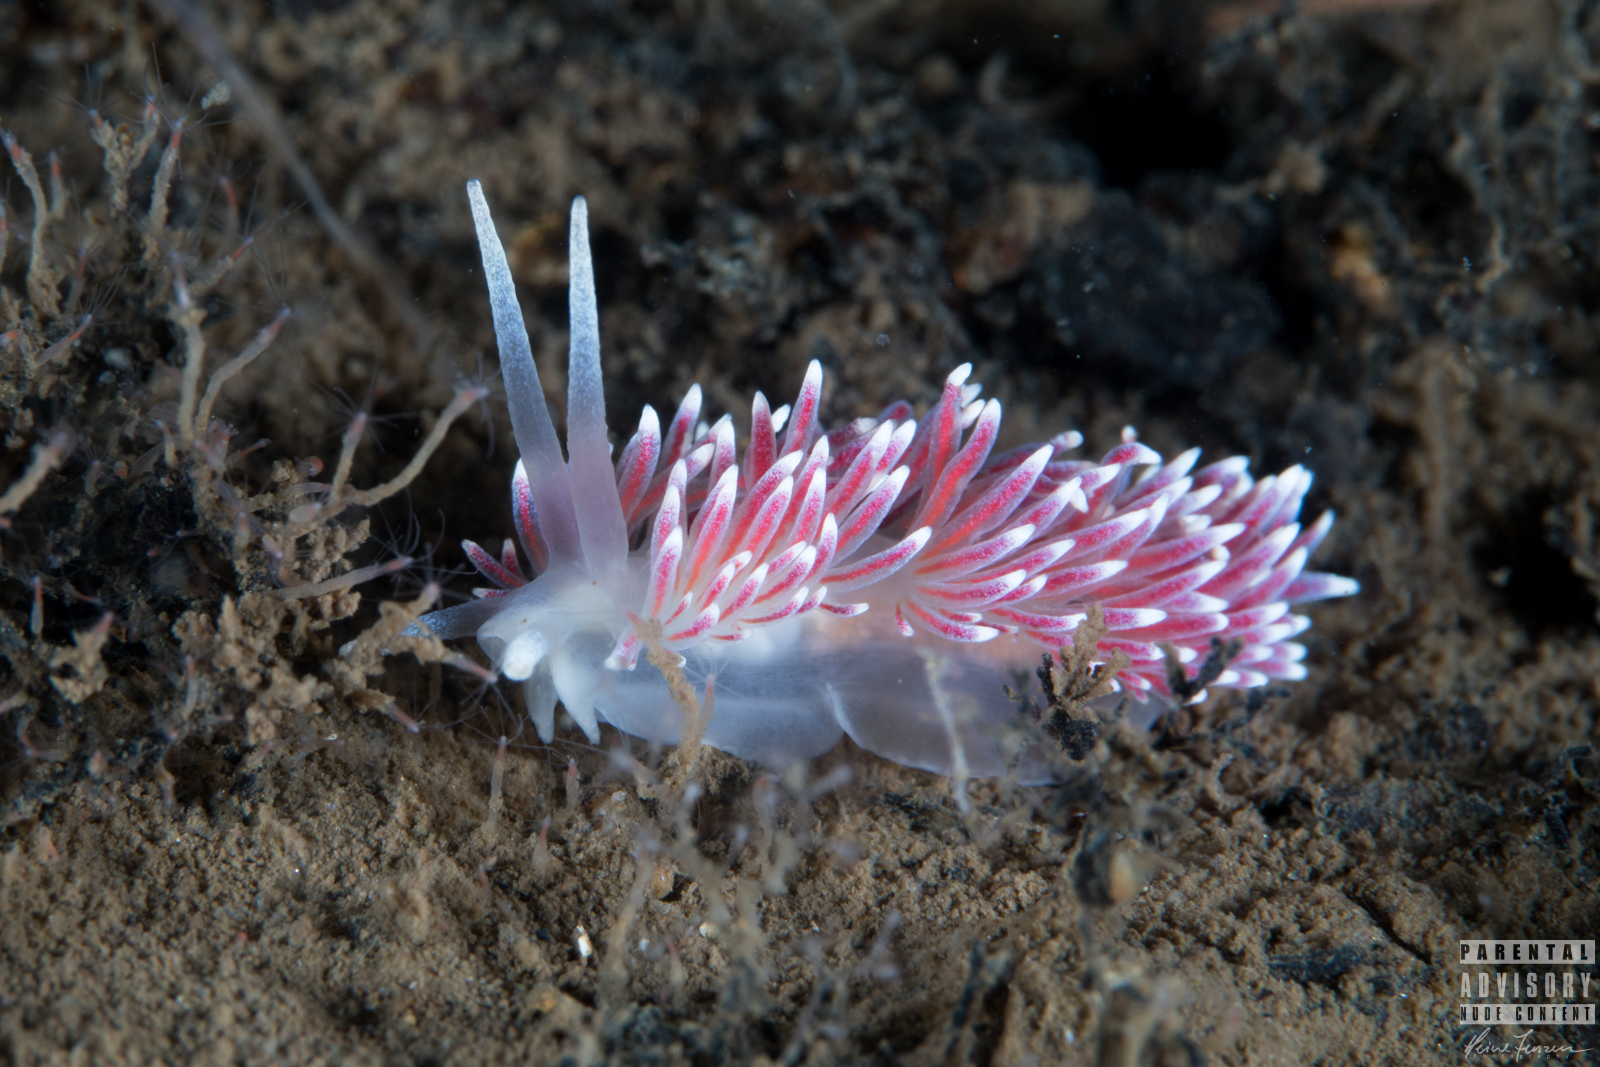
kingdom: Animalia
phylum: Mollusca
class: Gastropoda
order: Nudibranchia
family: Flabellinidae
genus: Carronella
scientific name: Carronella pellucida
